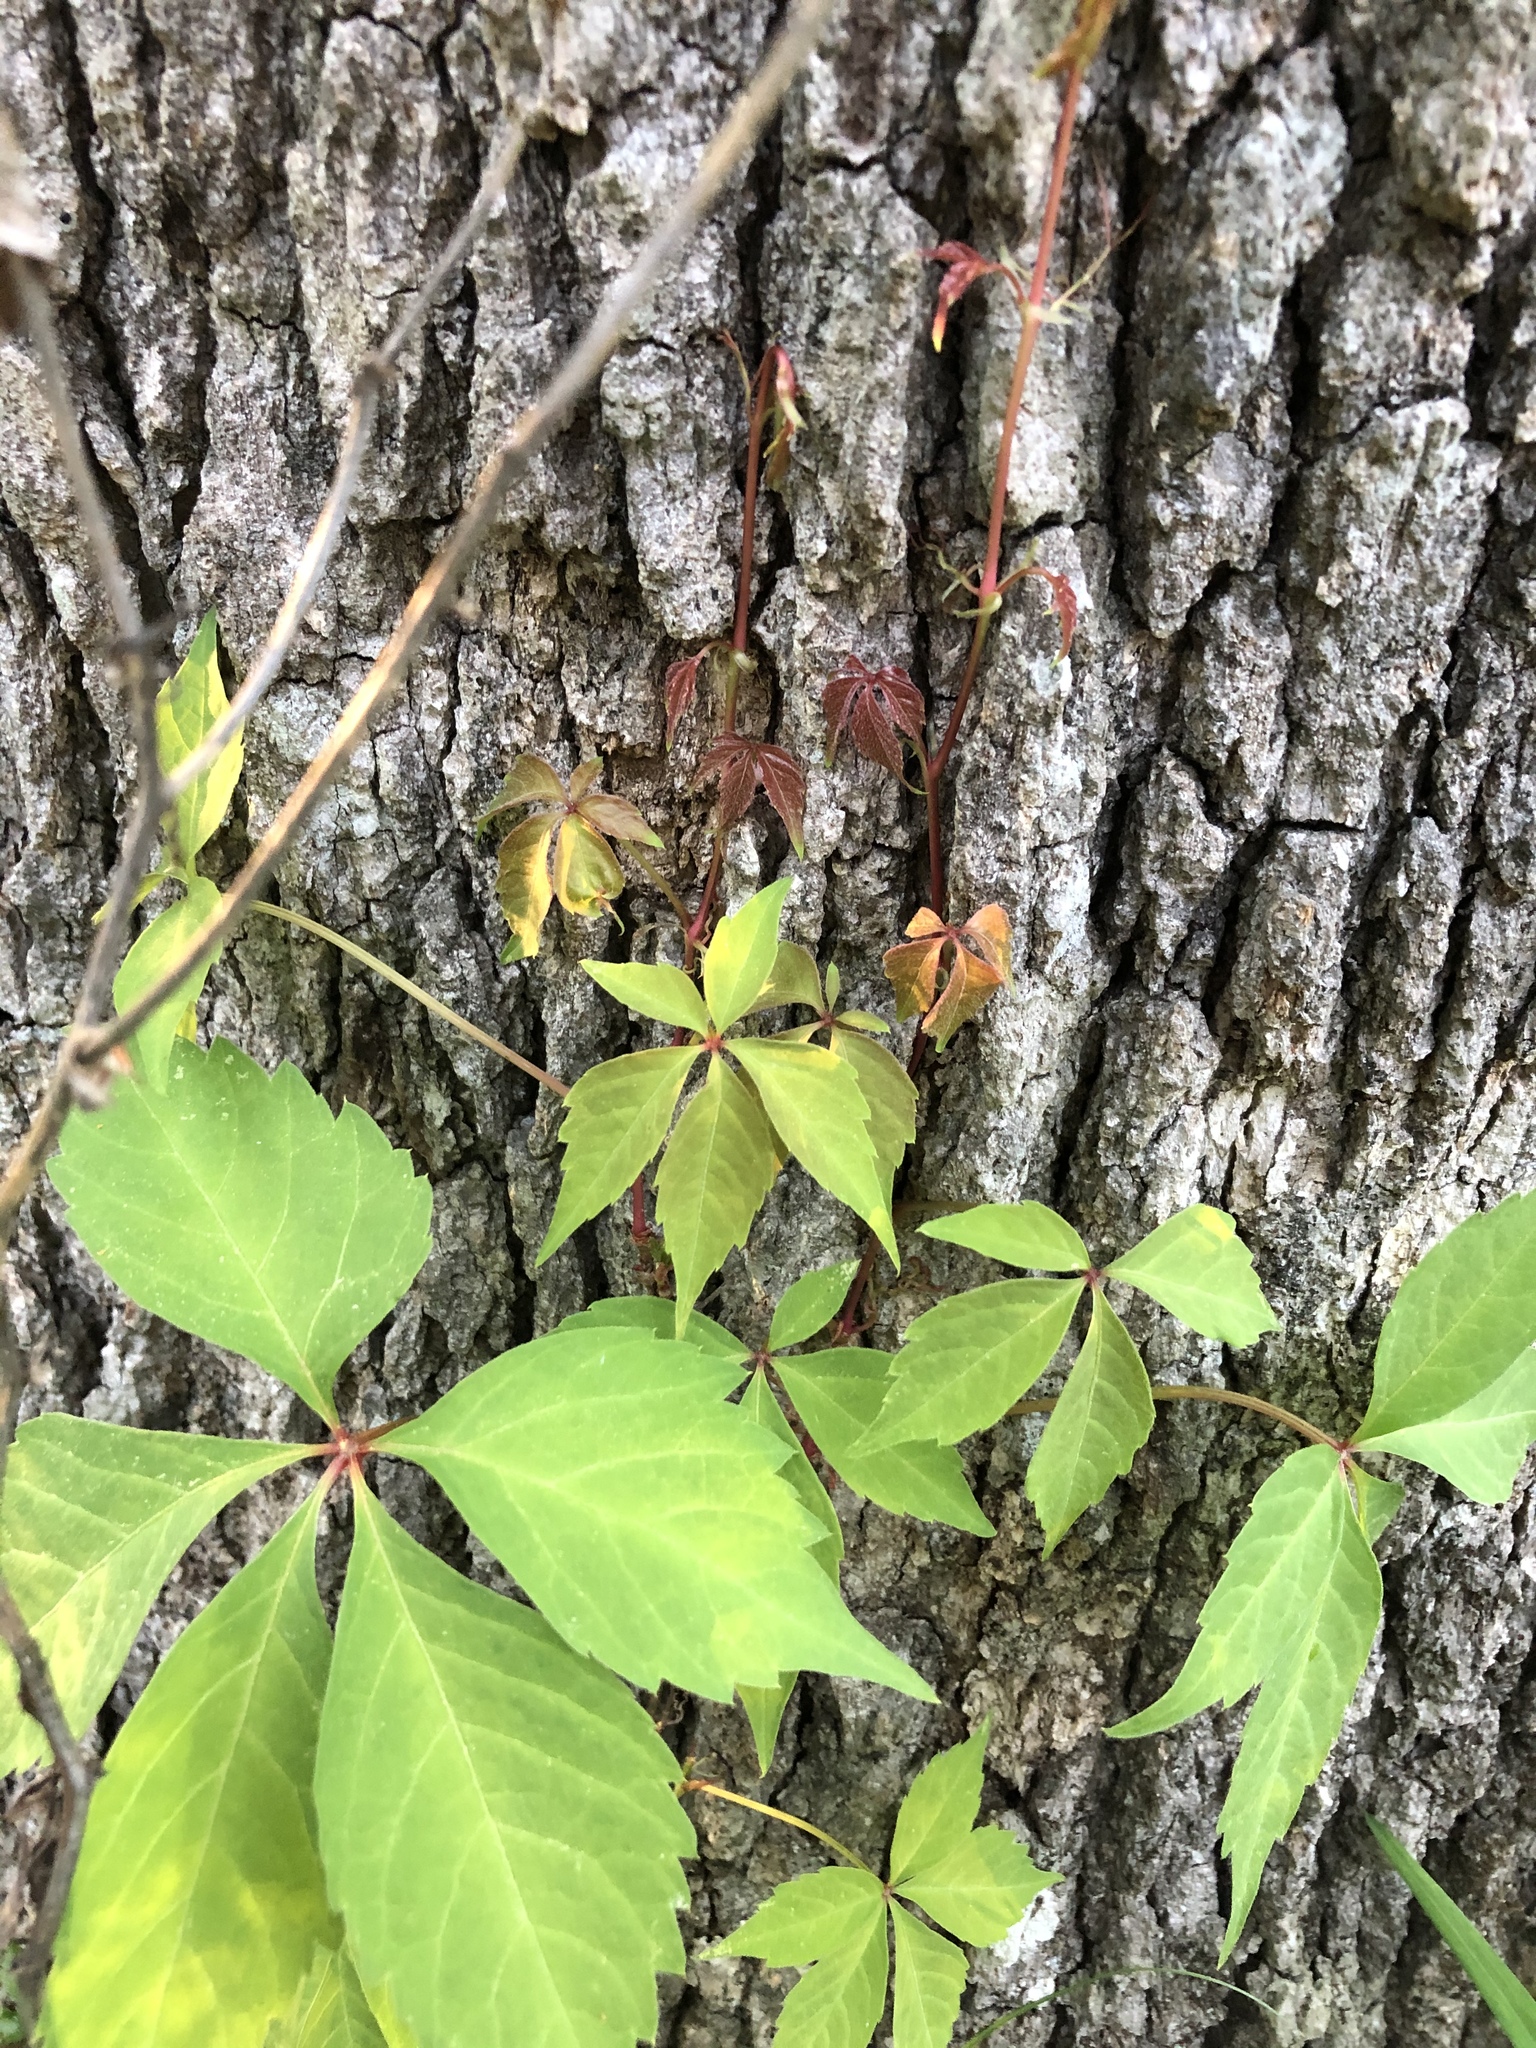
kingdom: Plantae
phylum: Tracheophyta
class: Magnoliopsida
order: Vitales
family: Vitaceae
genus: Parthenocissus
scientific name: Parthenocissus quinquefolia
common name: Virginia-creeper
